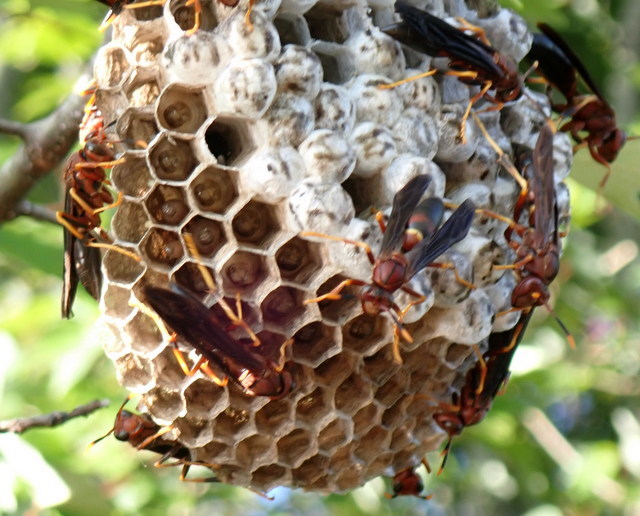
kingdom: Animalia
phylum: Arthropoda
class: Insecta
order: Hymenoptera
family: Eumenidae
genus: Polistes
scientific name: Polistes annularis
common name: Ringed paper wasp
